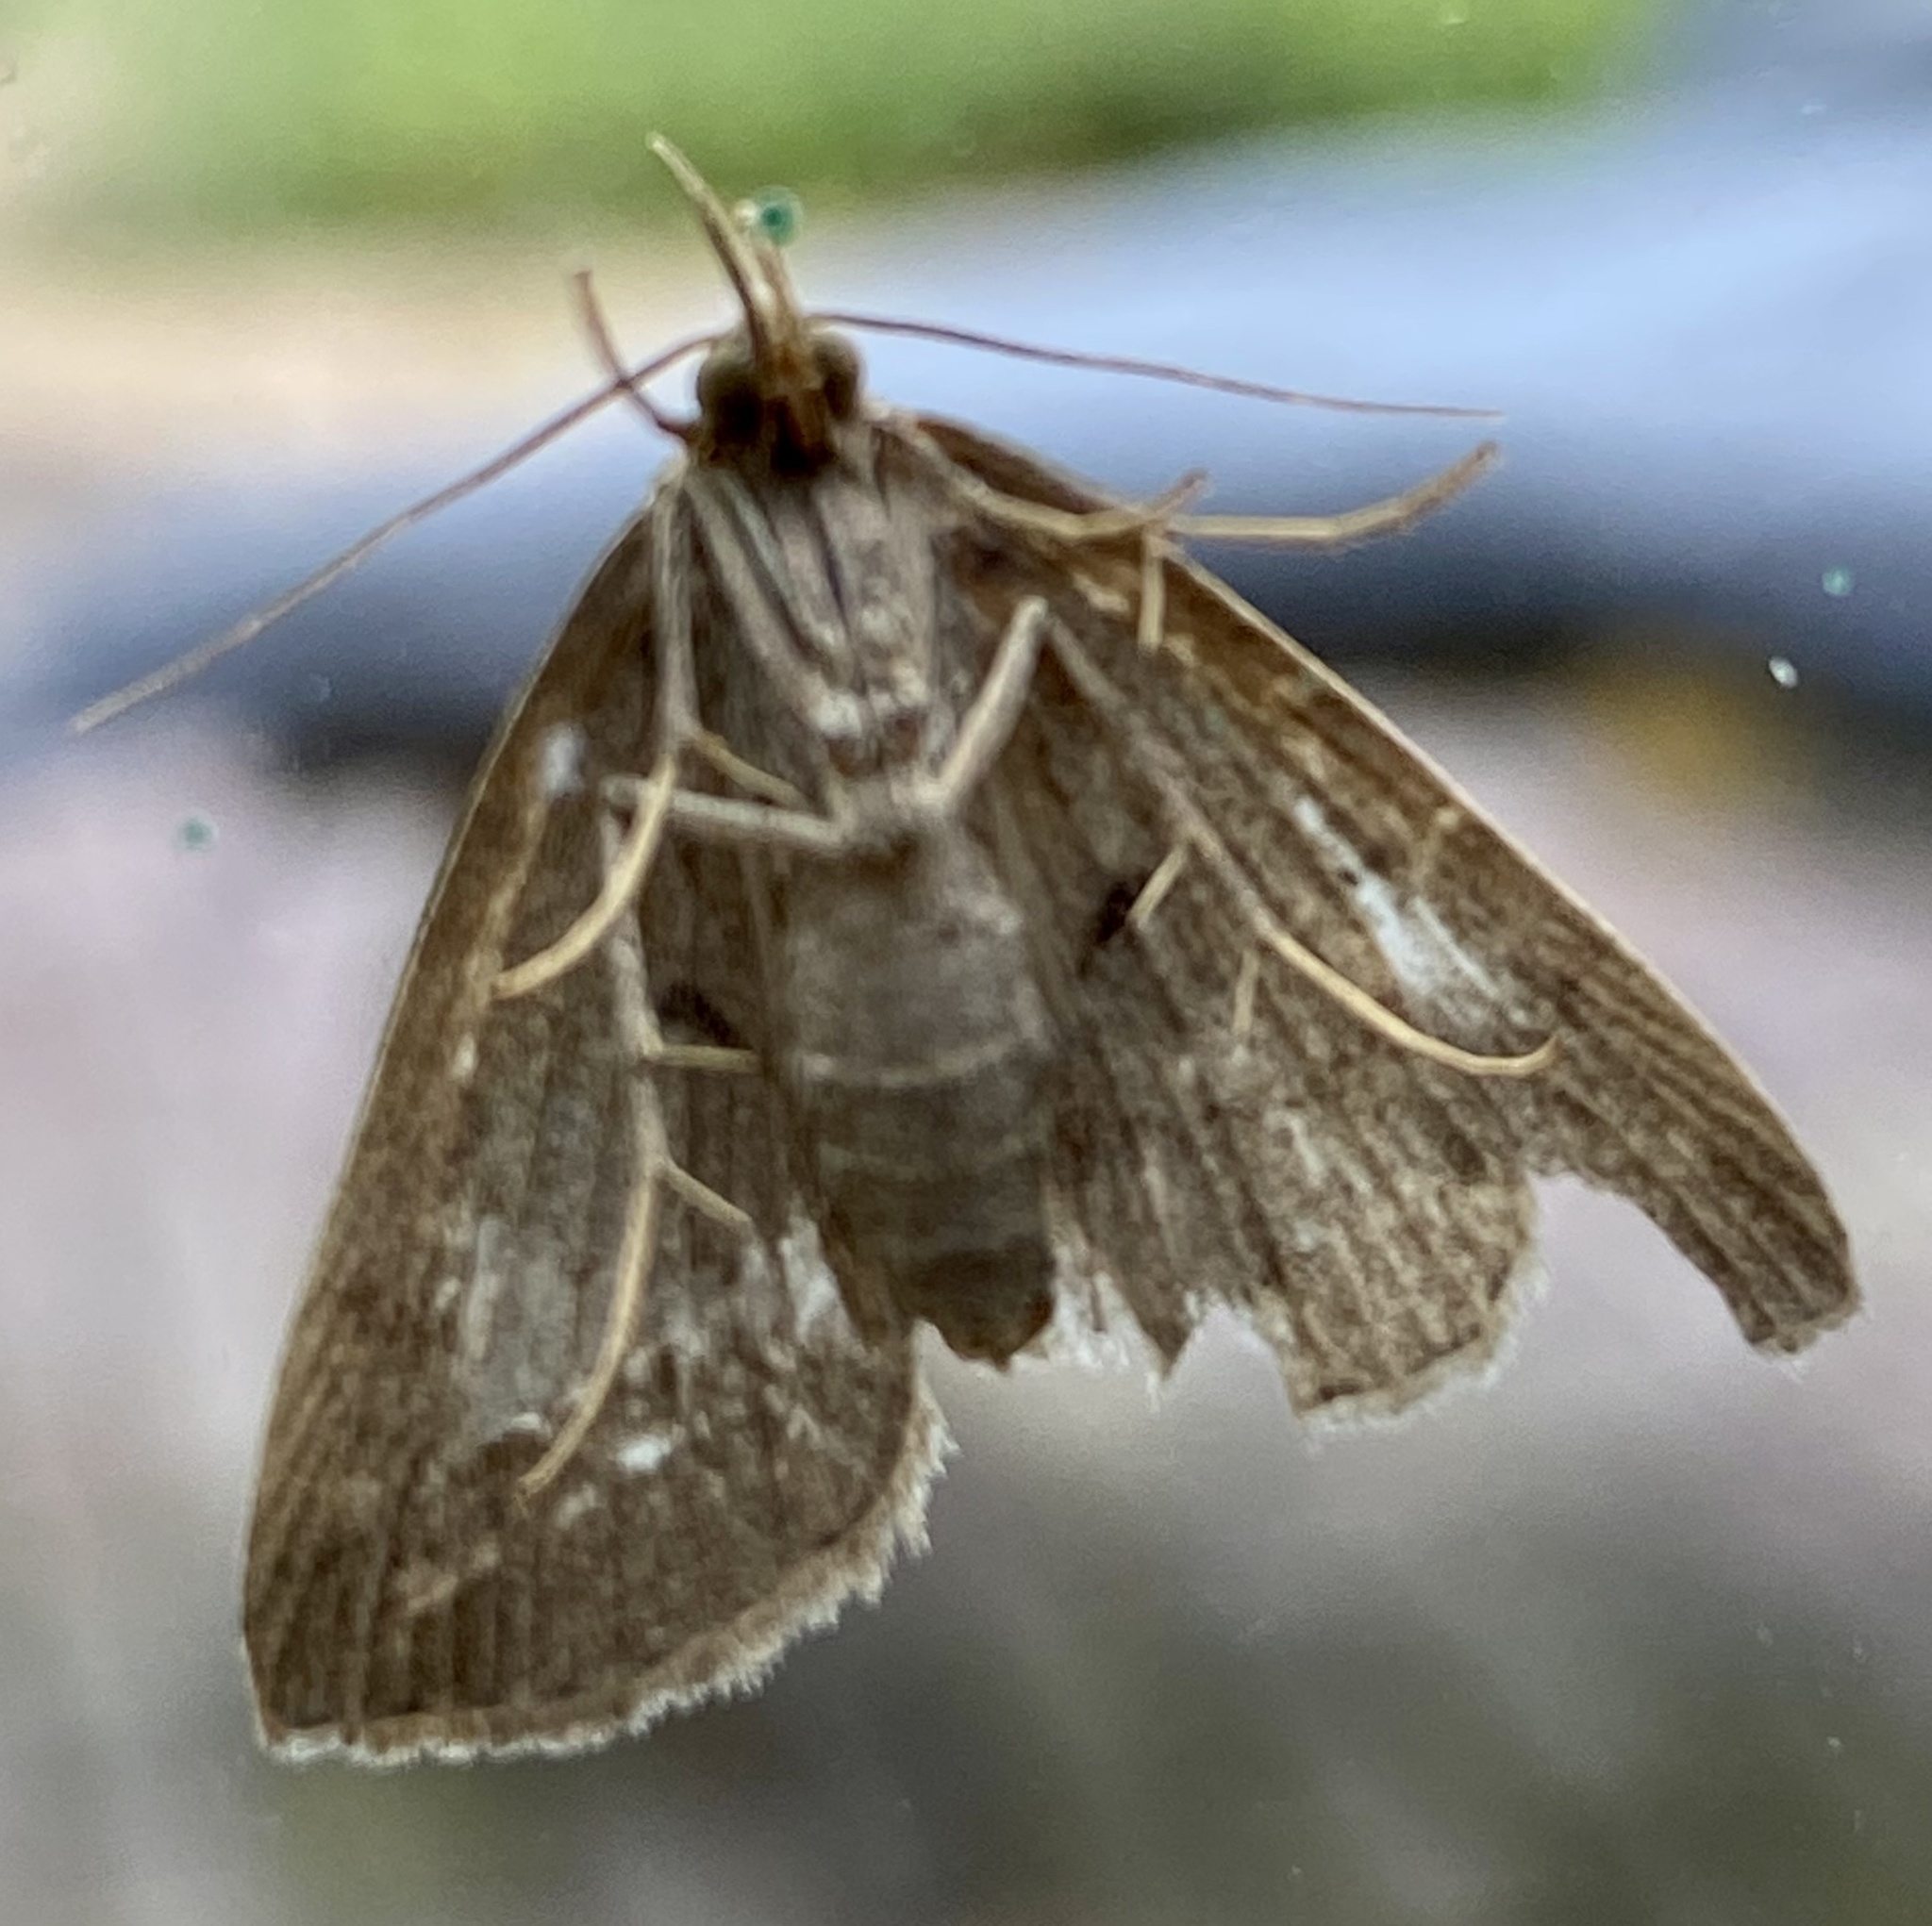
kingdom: Animalia
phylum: Arthropoda
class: Insecta
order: Lepidoptera
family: Erebidae
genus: Herminia
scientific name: Herminia tarsipennalis
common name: Fan-foot
